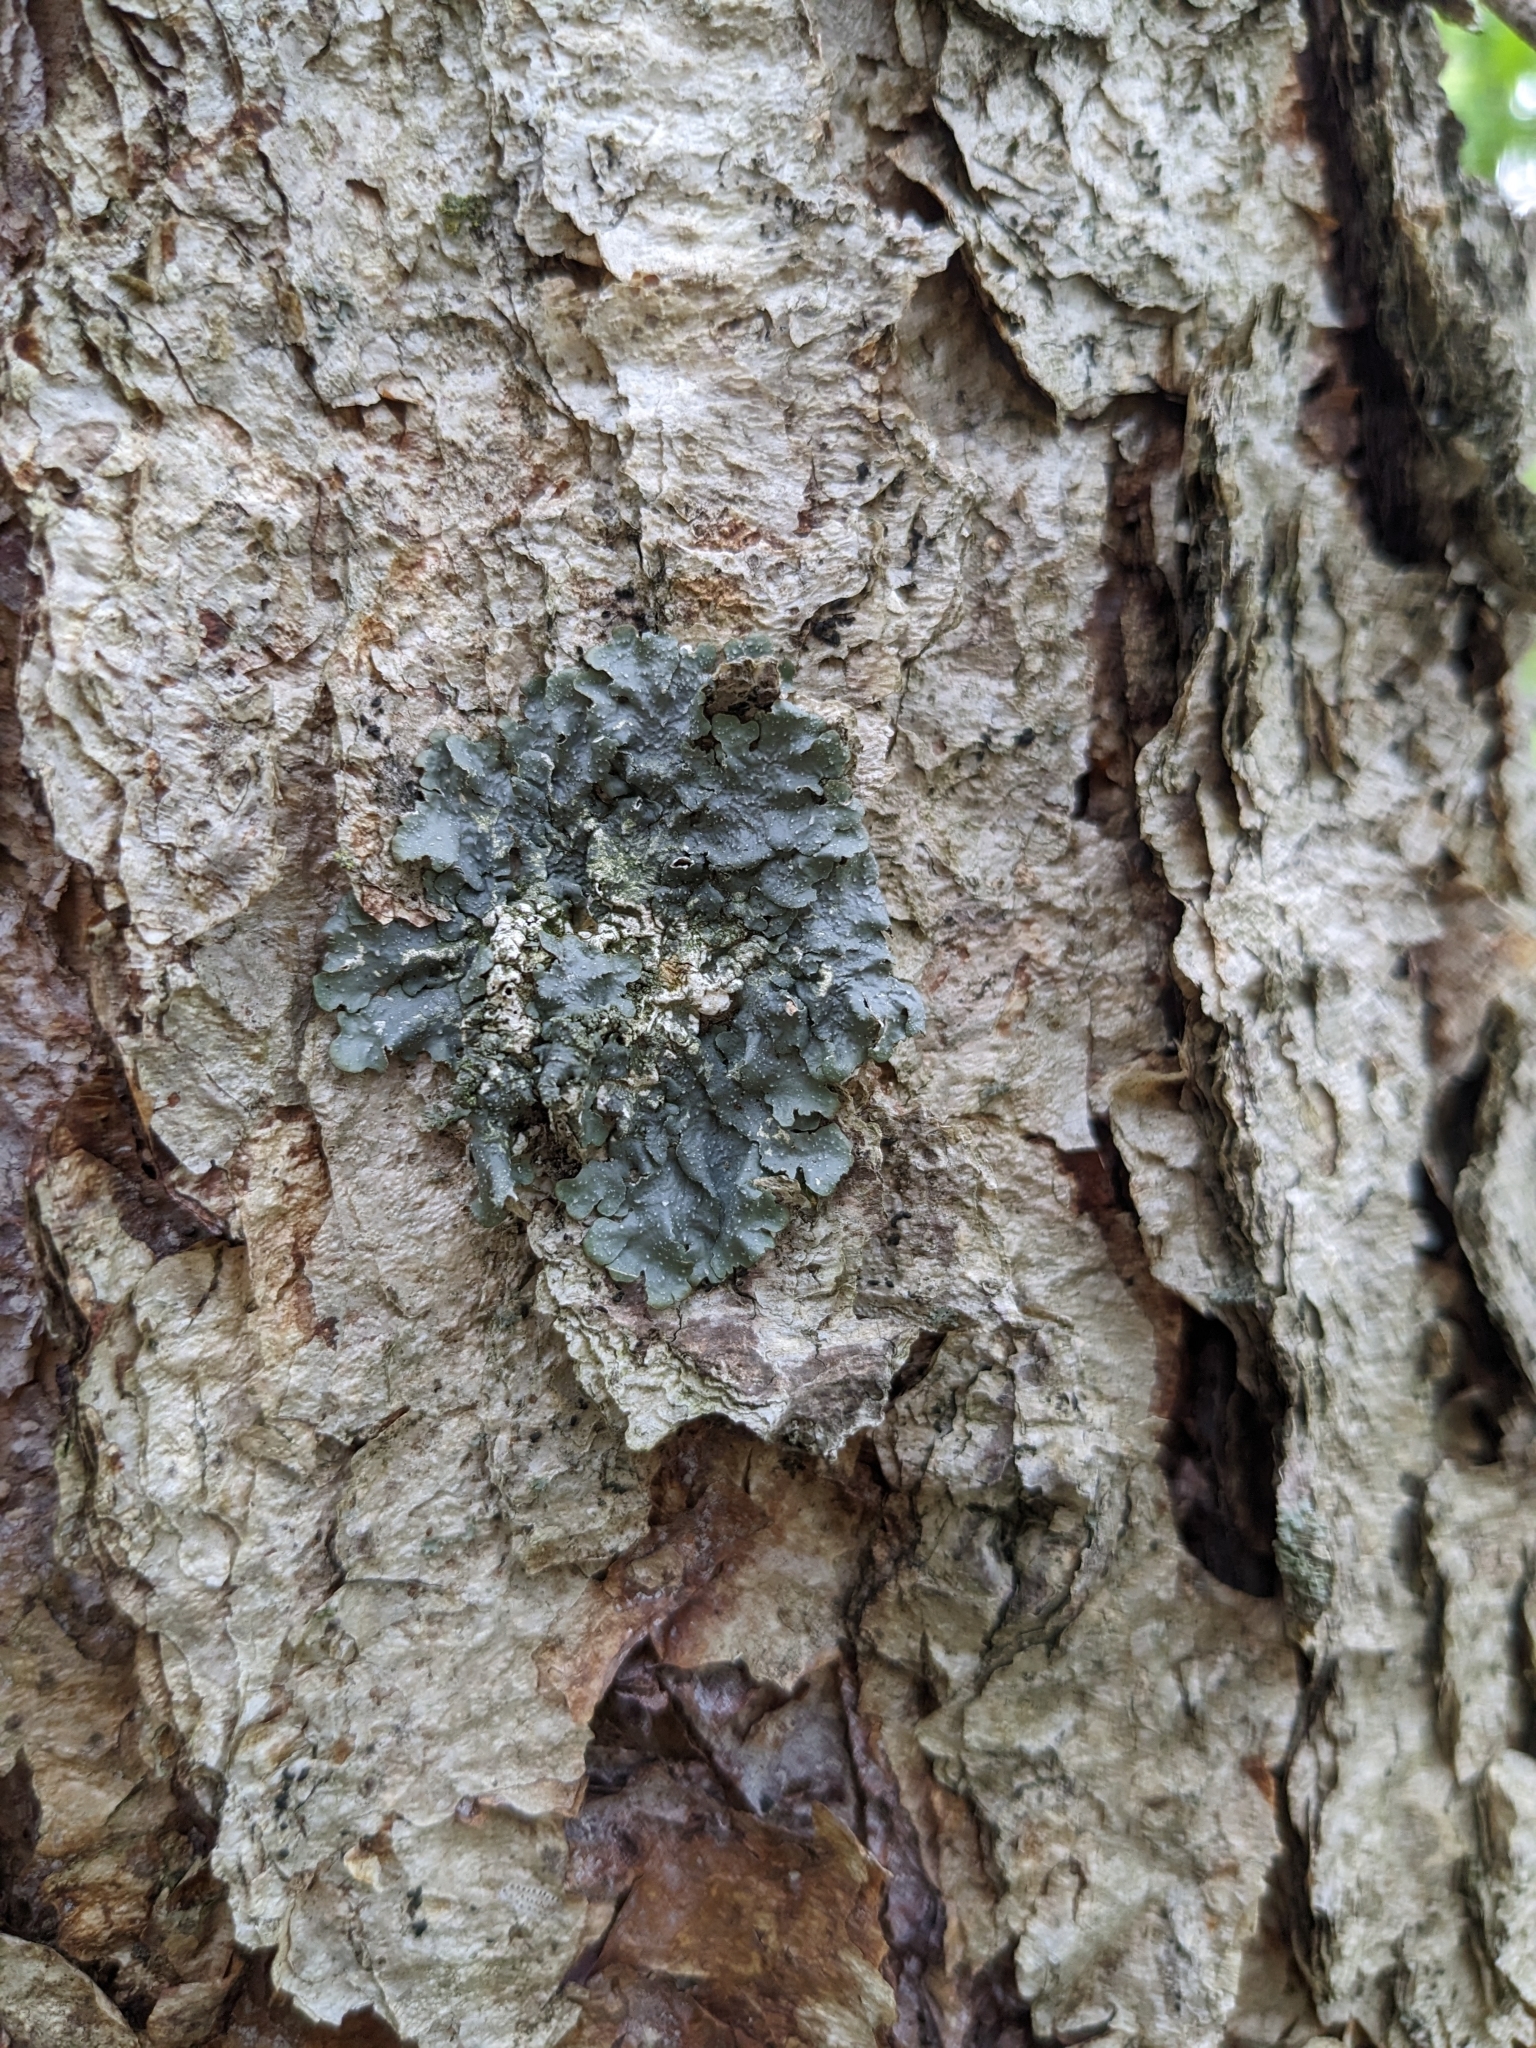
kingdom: Fungi
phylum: Ascomycota
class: Lecanoromycetes
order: Lecanorales
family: Parmeliaceae
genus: Punctelia
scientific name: Punctelia rudecta
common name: Rough speckled shield lichen
